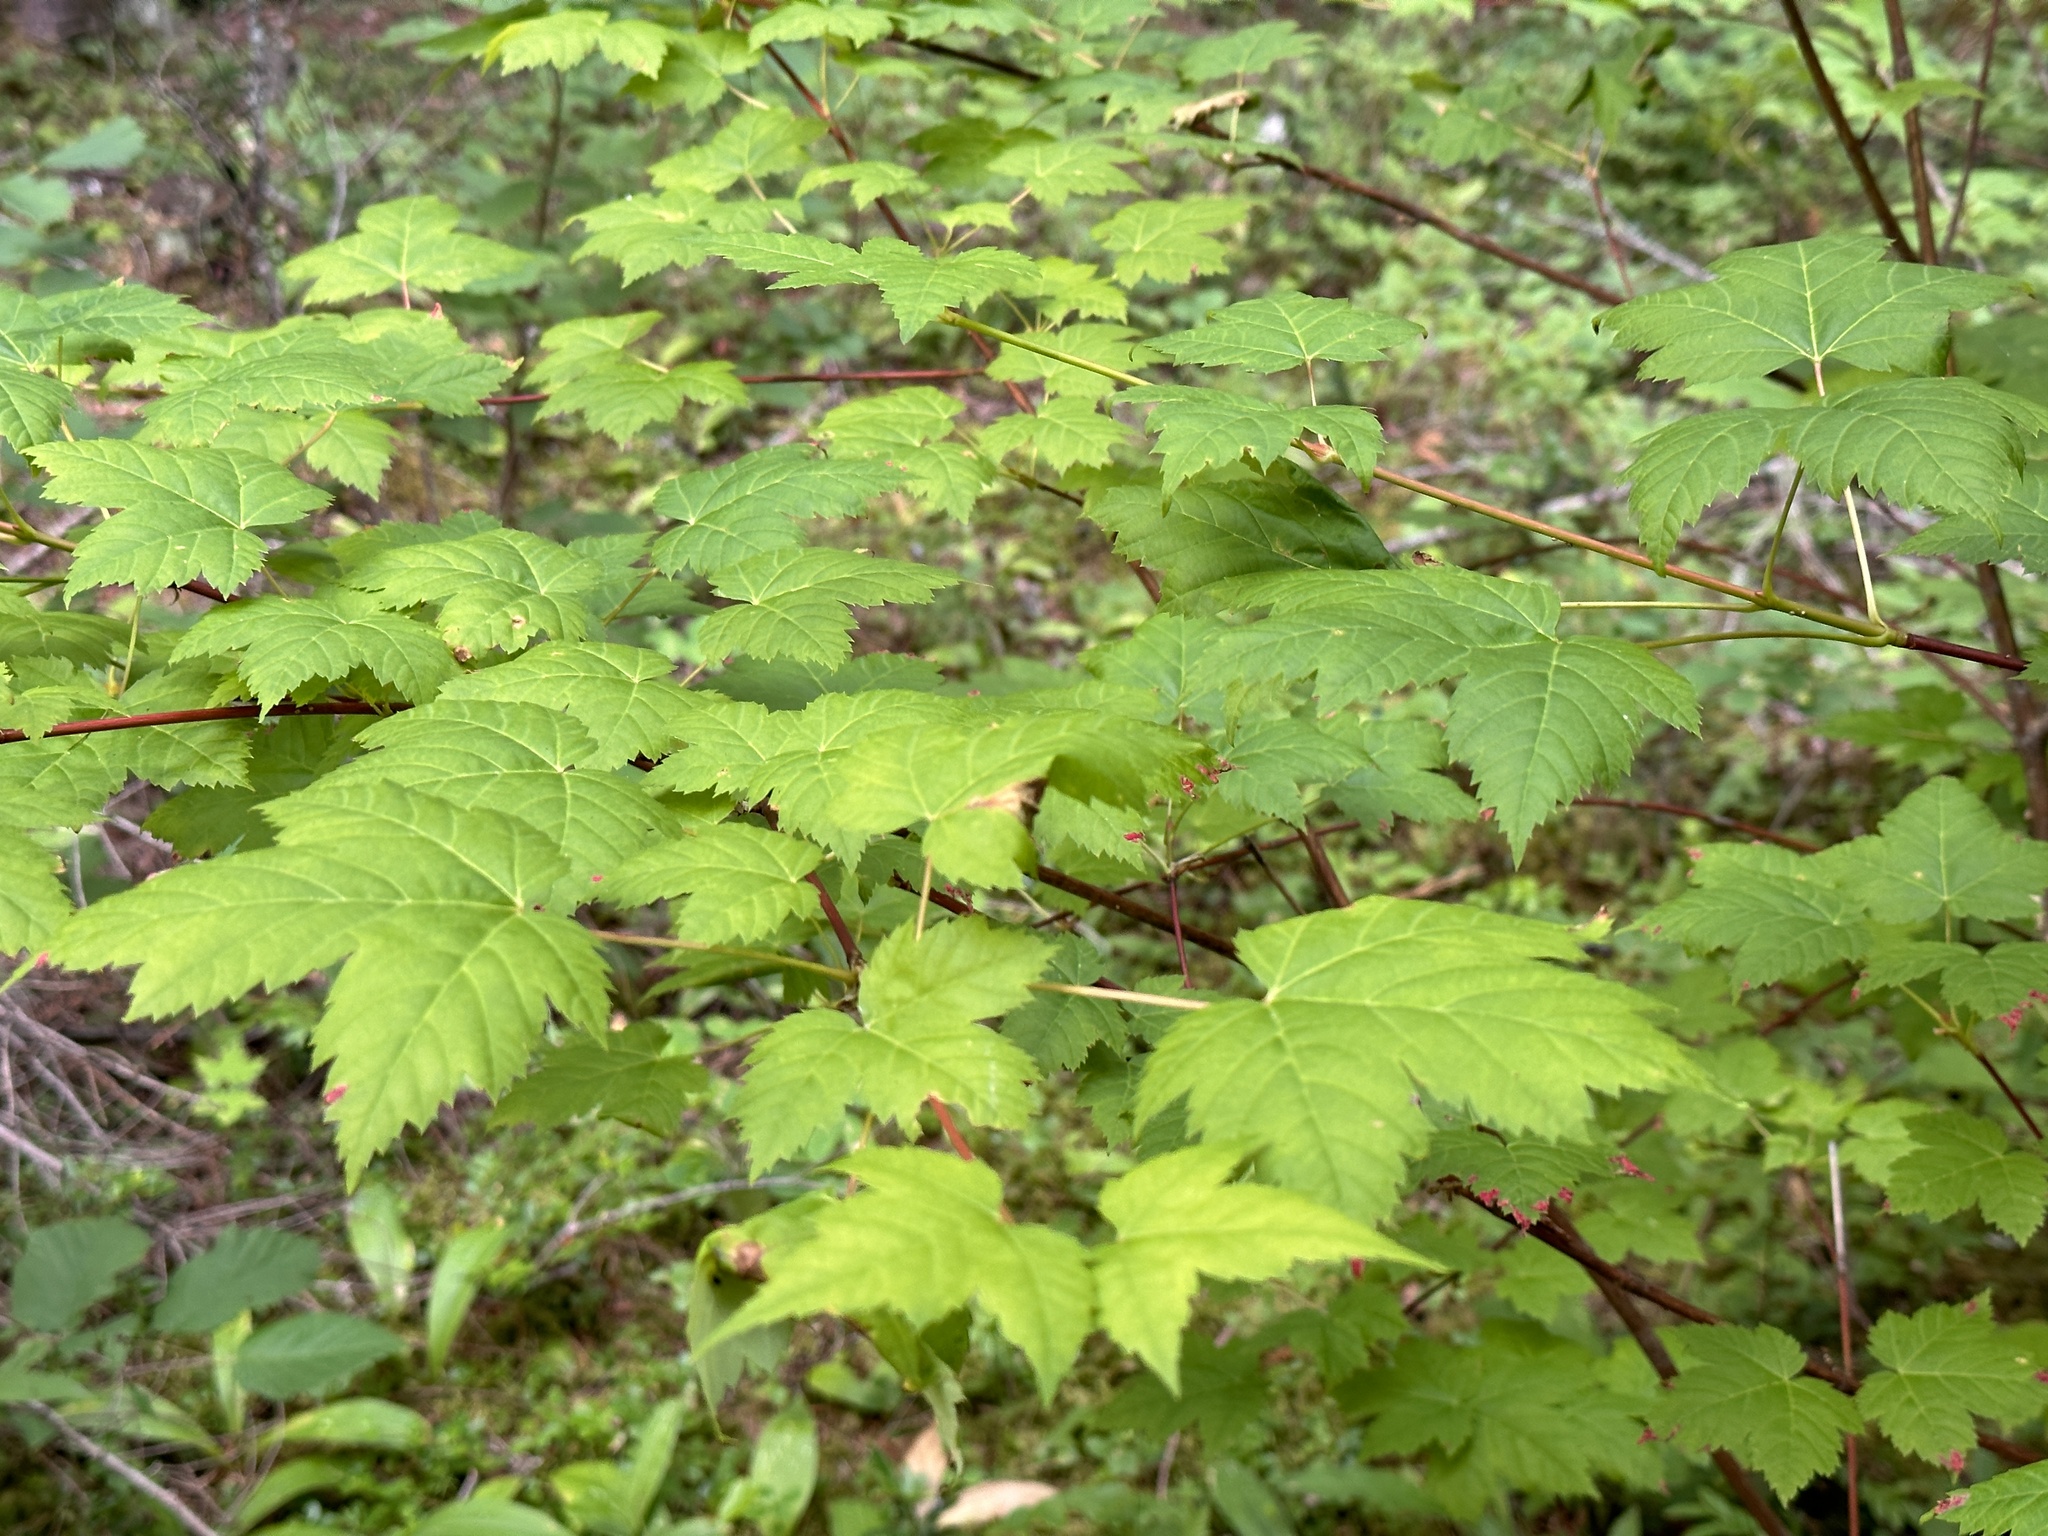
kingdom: Plantae
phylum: Tracheophyta
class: Magnoliopsida
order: Sapindales
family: Sapindaceae
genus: Acer
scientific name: Acer glabrum
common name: Rocky mountain maple
